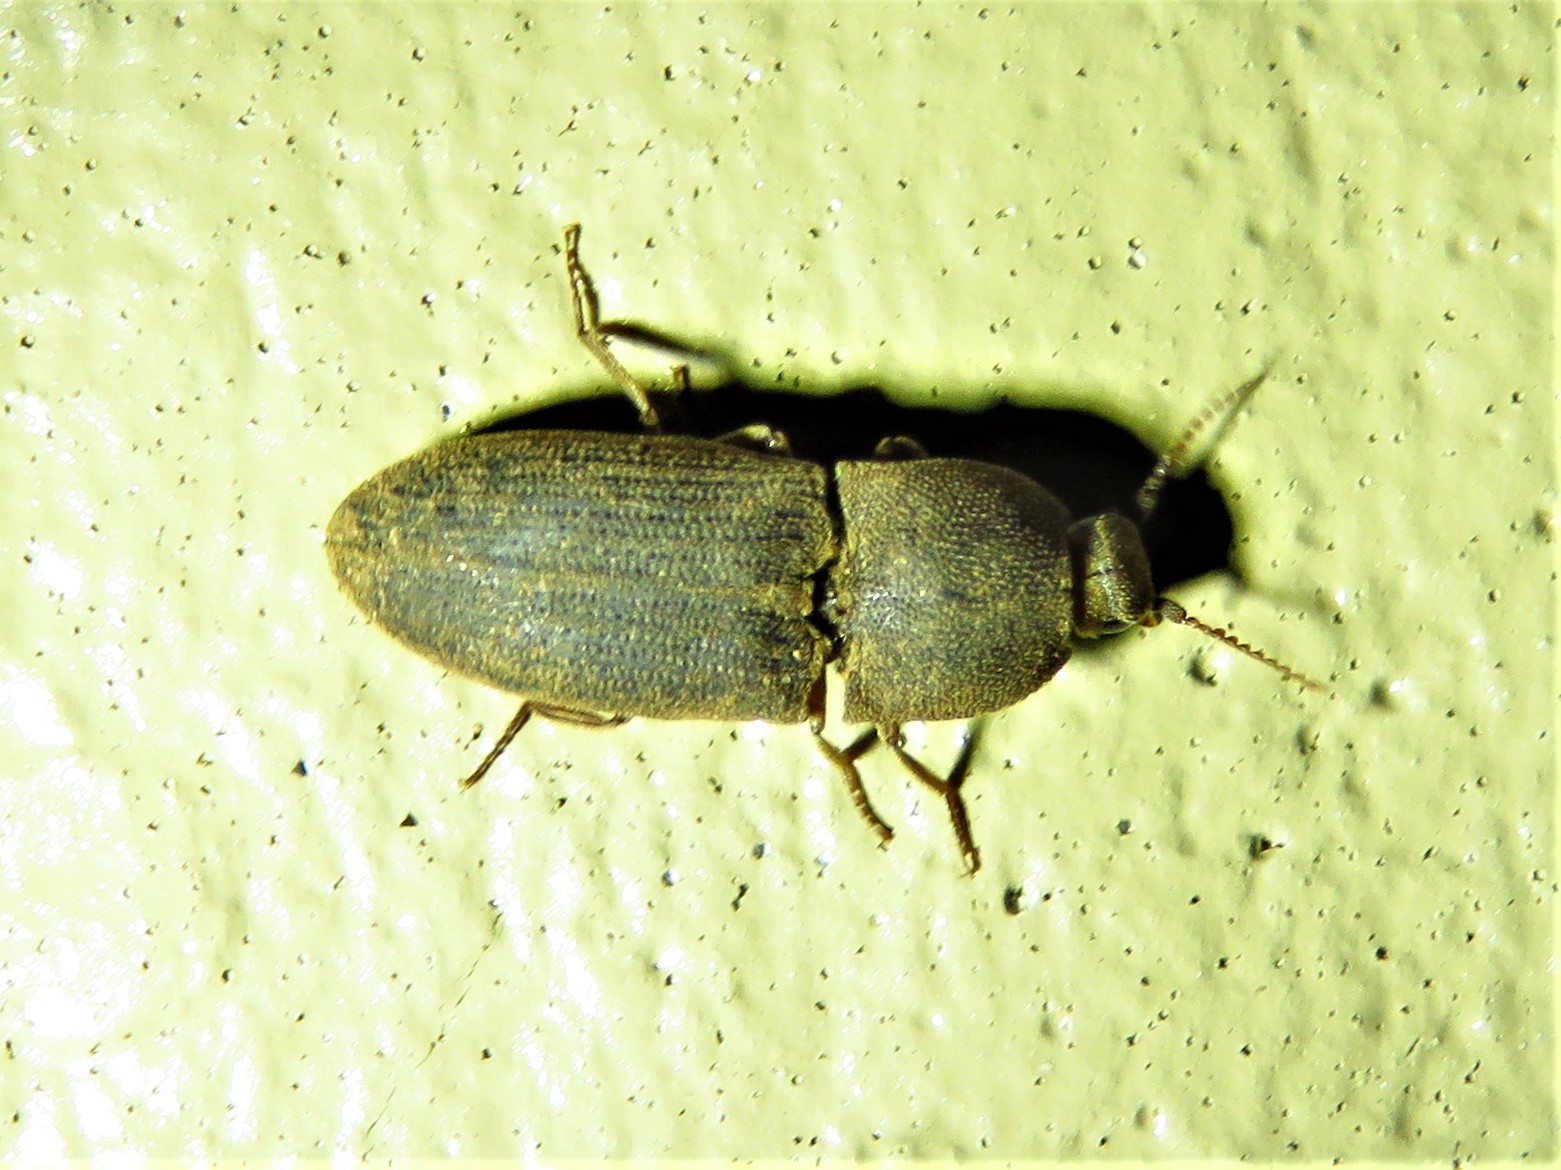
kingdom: Animalia
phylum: Arthropoda
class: Insecta
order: Coleoptera
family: Elateridae
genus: Agrypnus
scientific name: Agrypnus rectangularis
